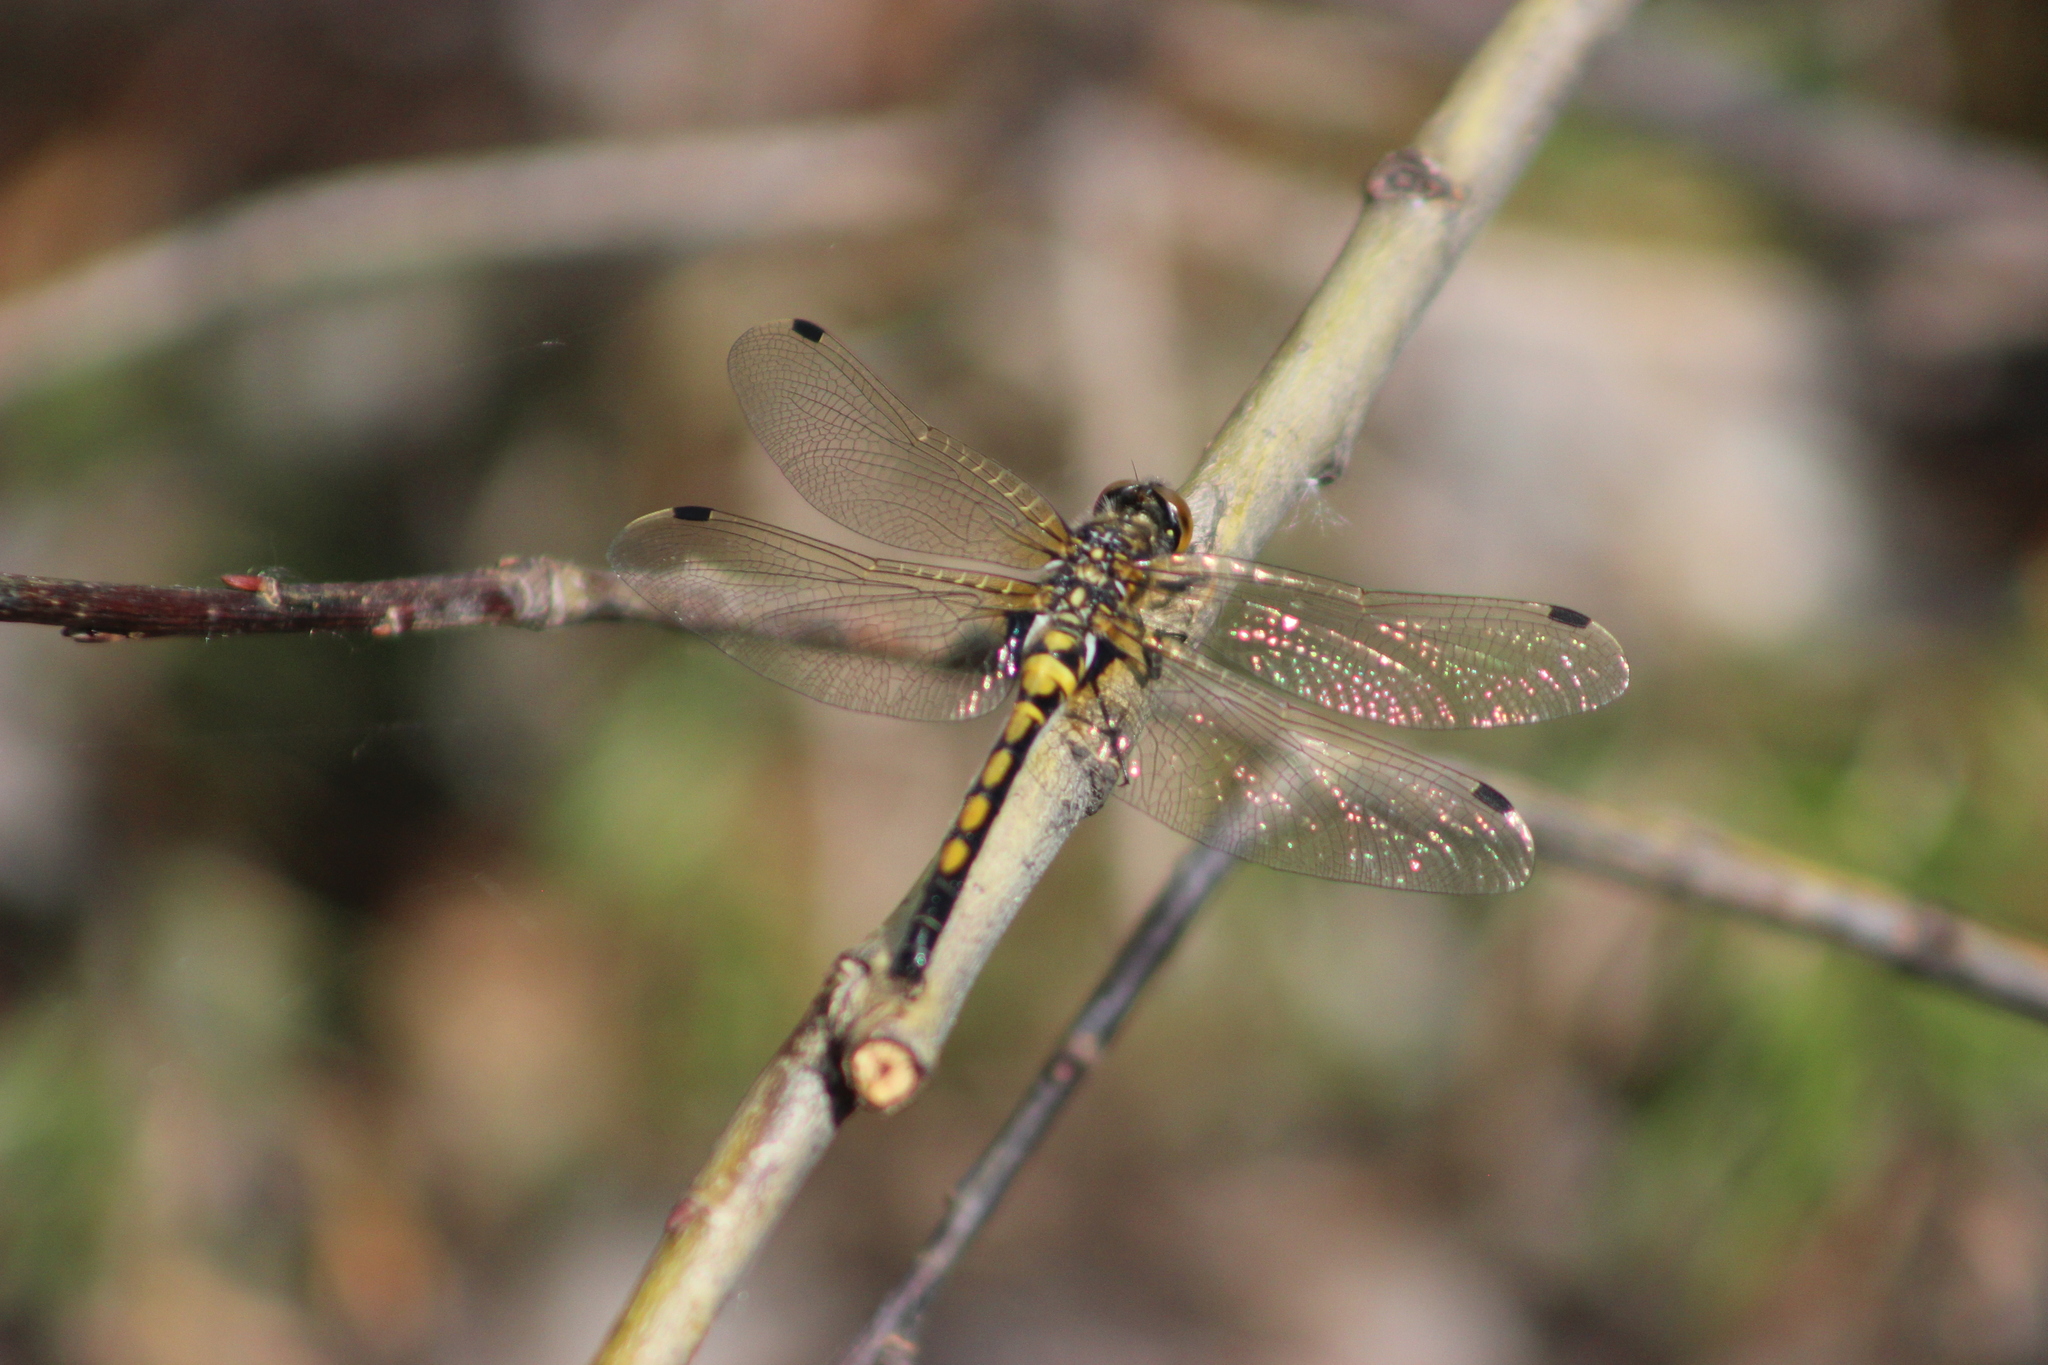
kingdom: Animalia
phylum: Arthropoda
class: Insecta
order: Odonata
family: Libellulidae
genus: Leucorrhinia
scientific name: Leucorrhinia rubicunda
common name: Ruby whiteface
